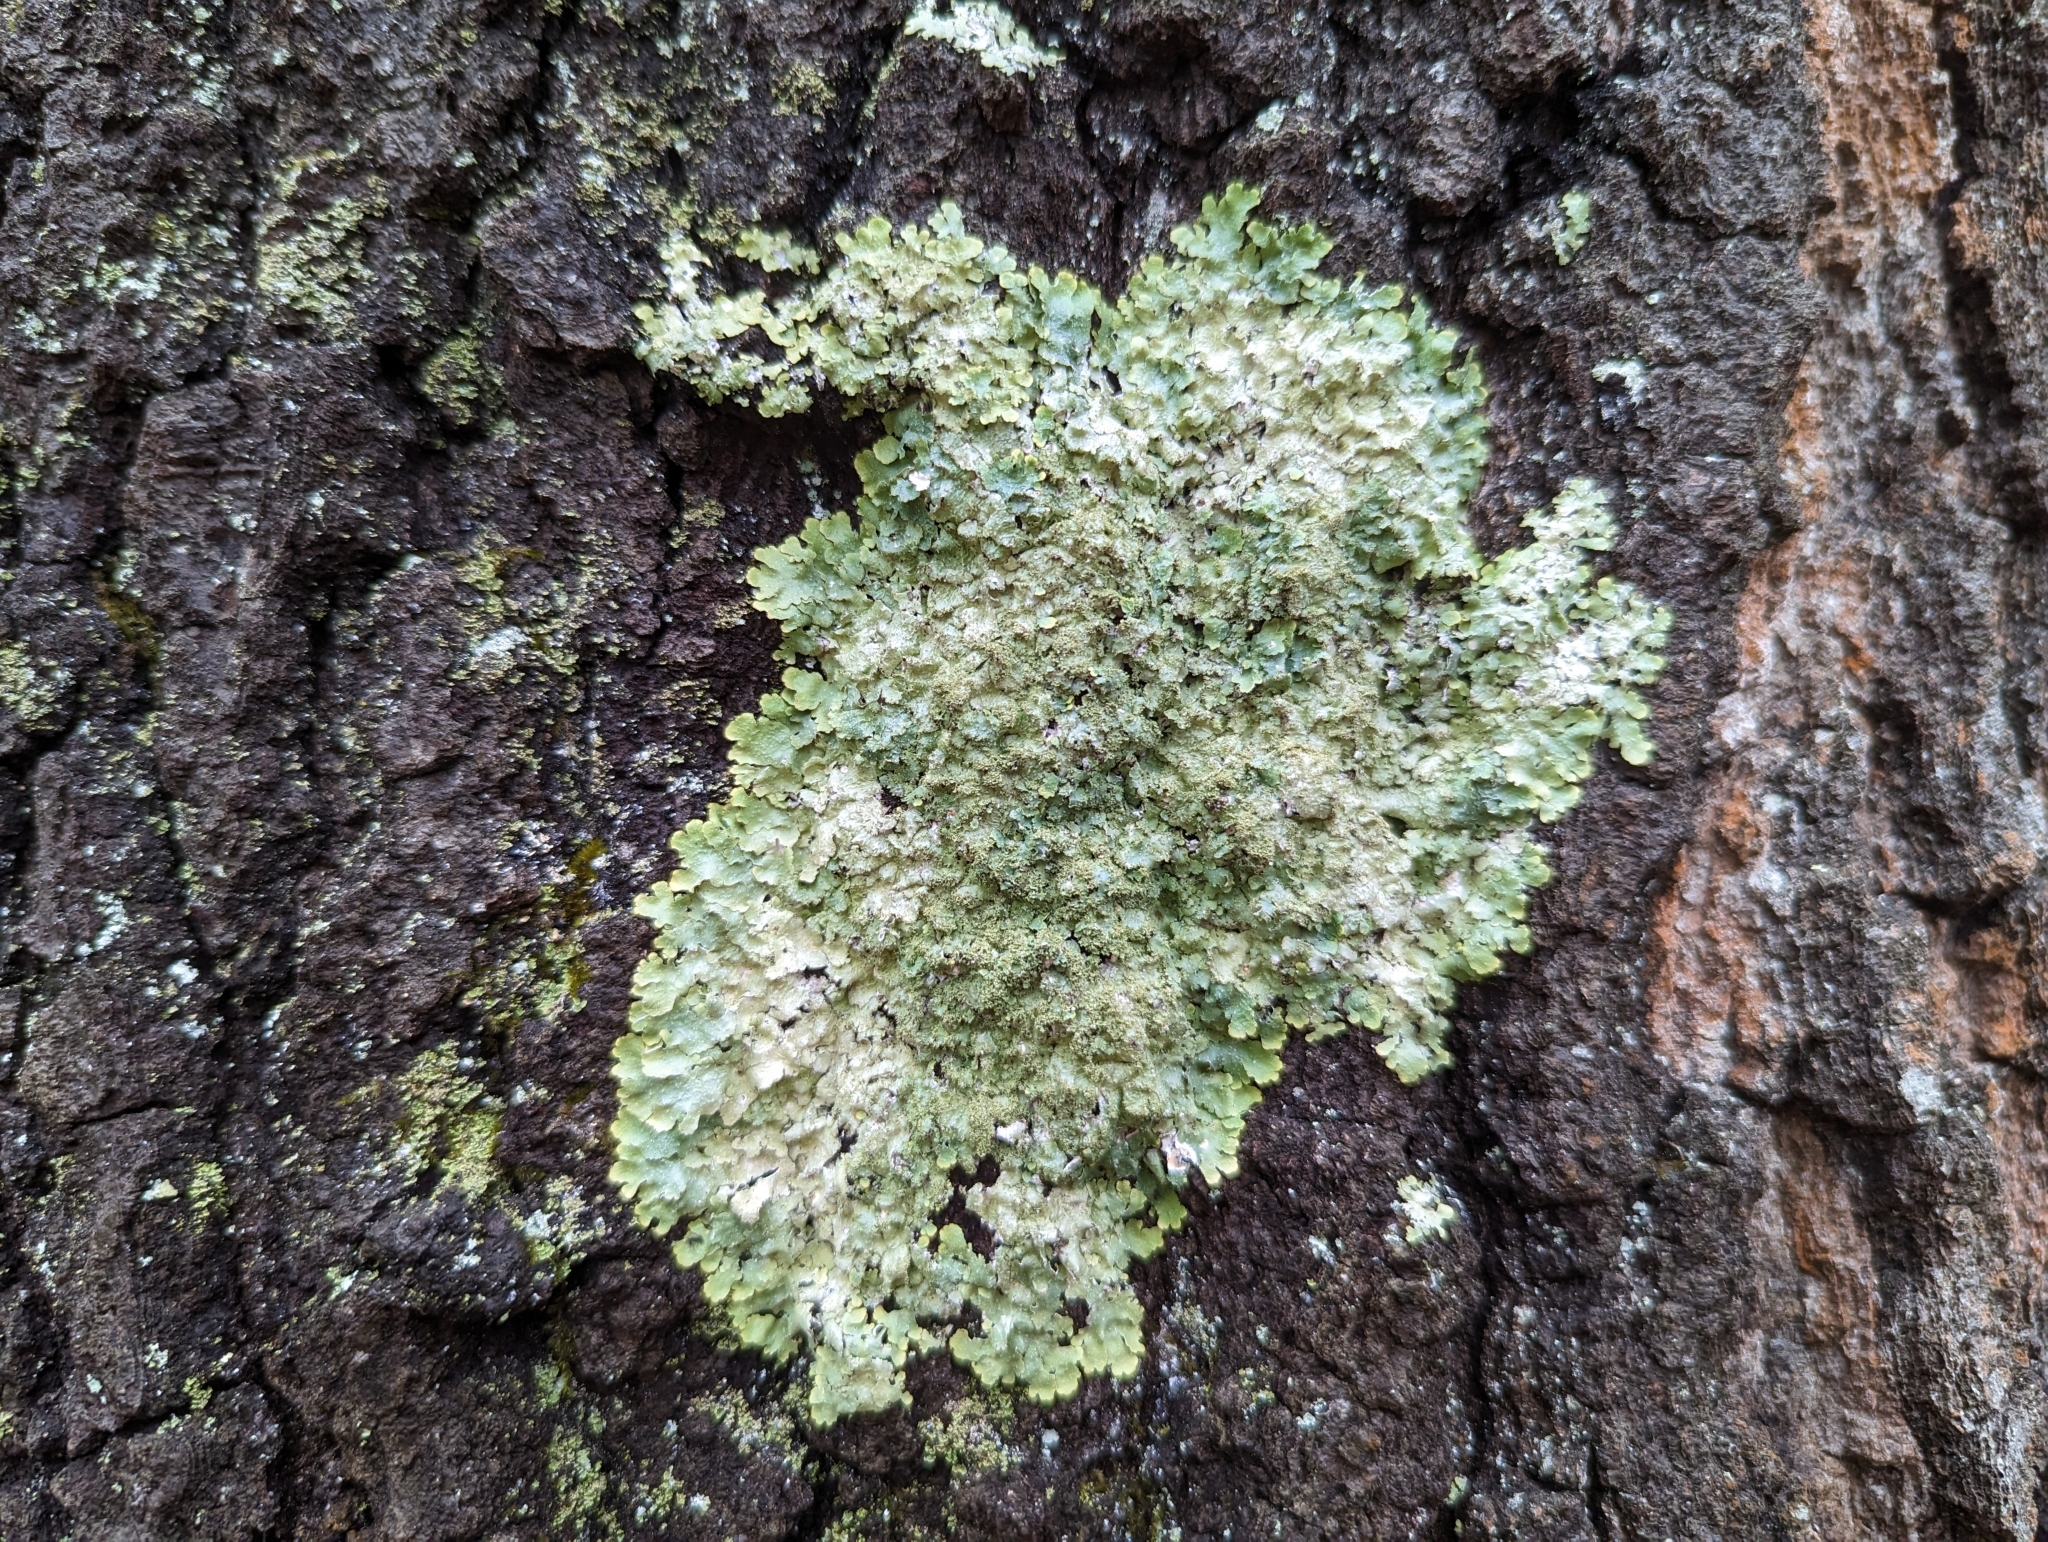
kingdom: Fungi
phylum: Ascomycota
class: Lecanoromycetes
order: Lecanorales
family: Parmeliaceae
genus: Punctelia
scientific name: Punctelia rudecta
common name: Rough speckled shield lichen
